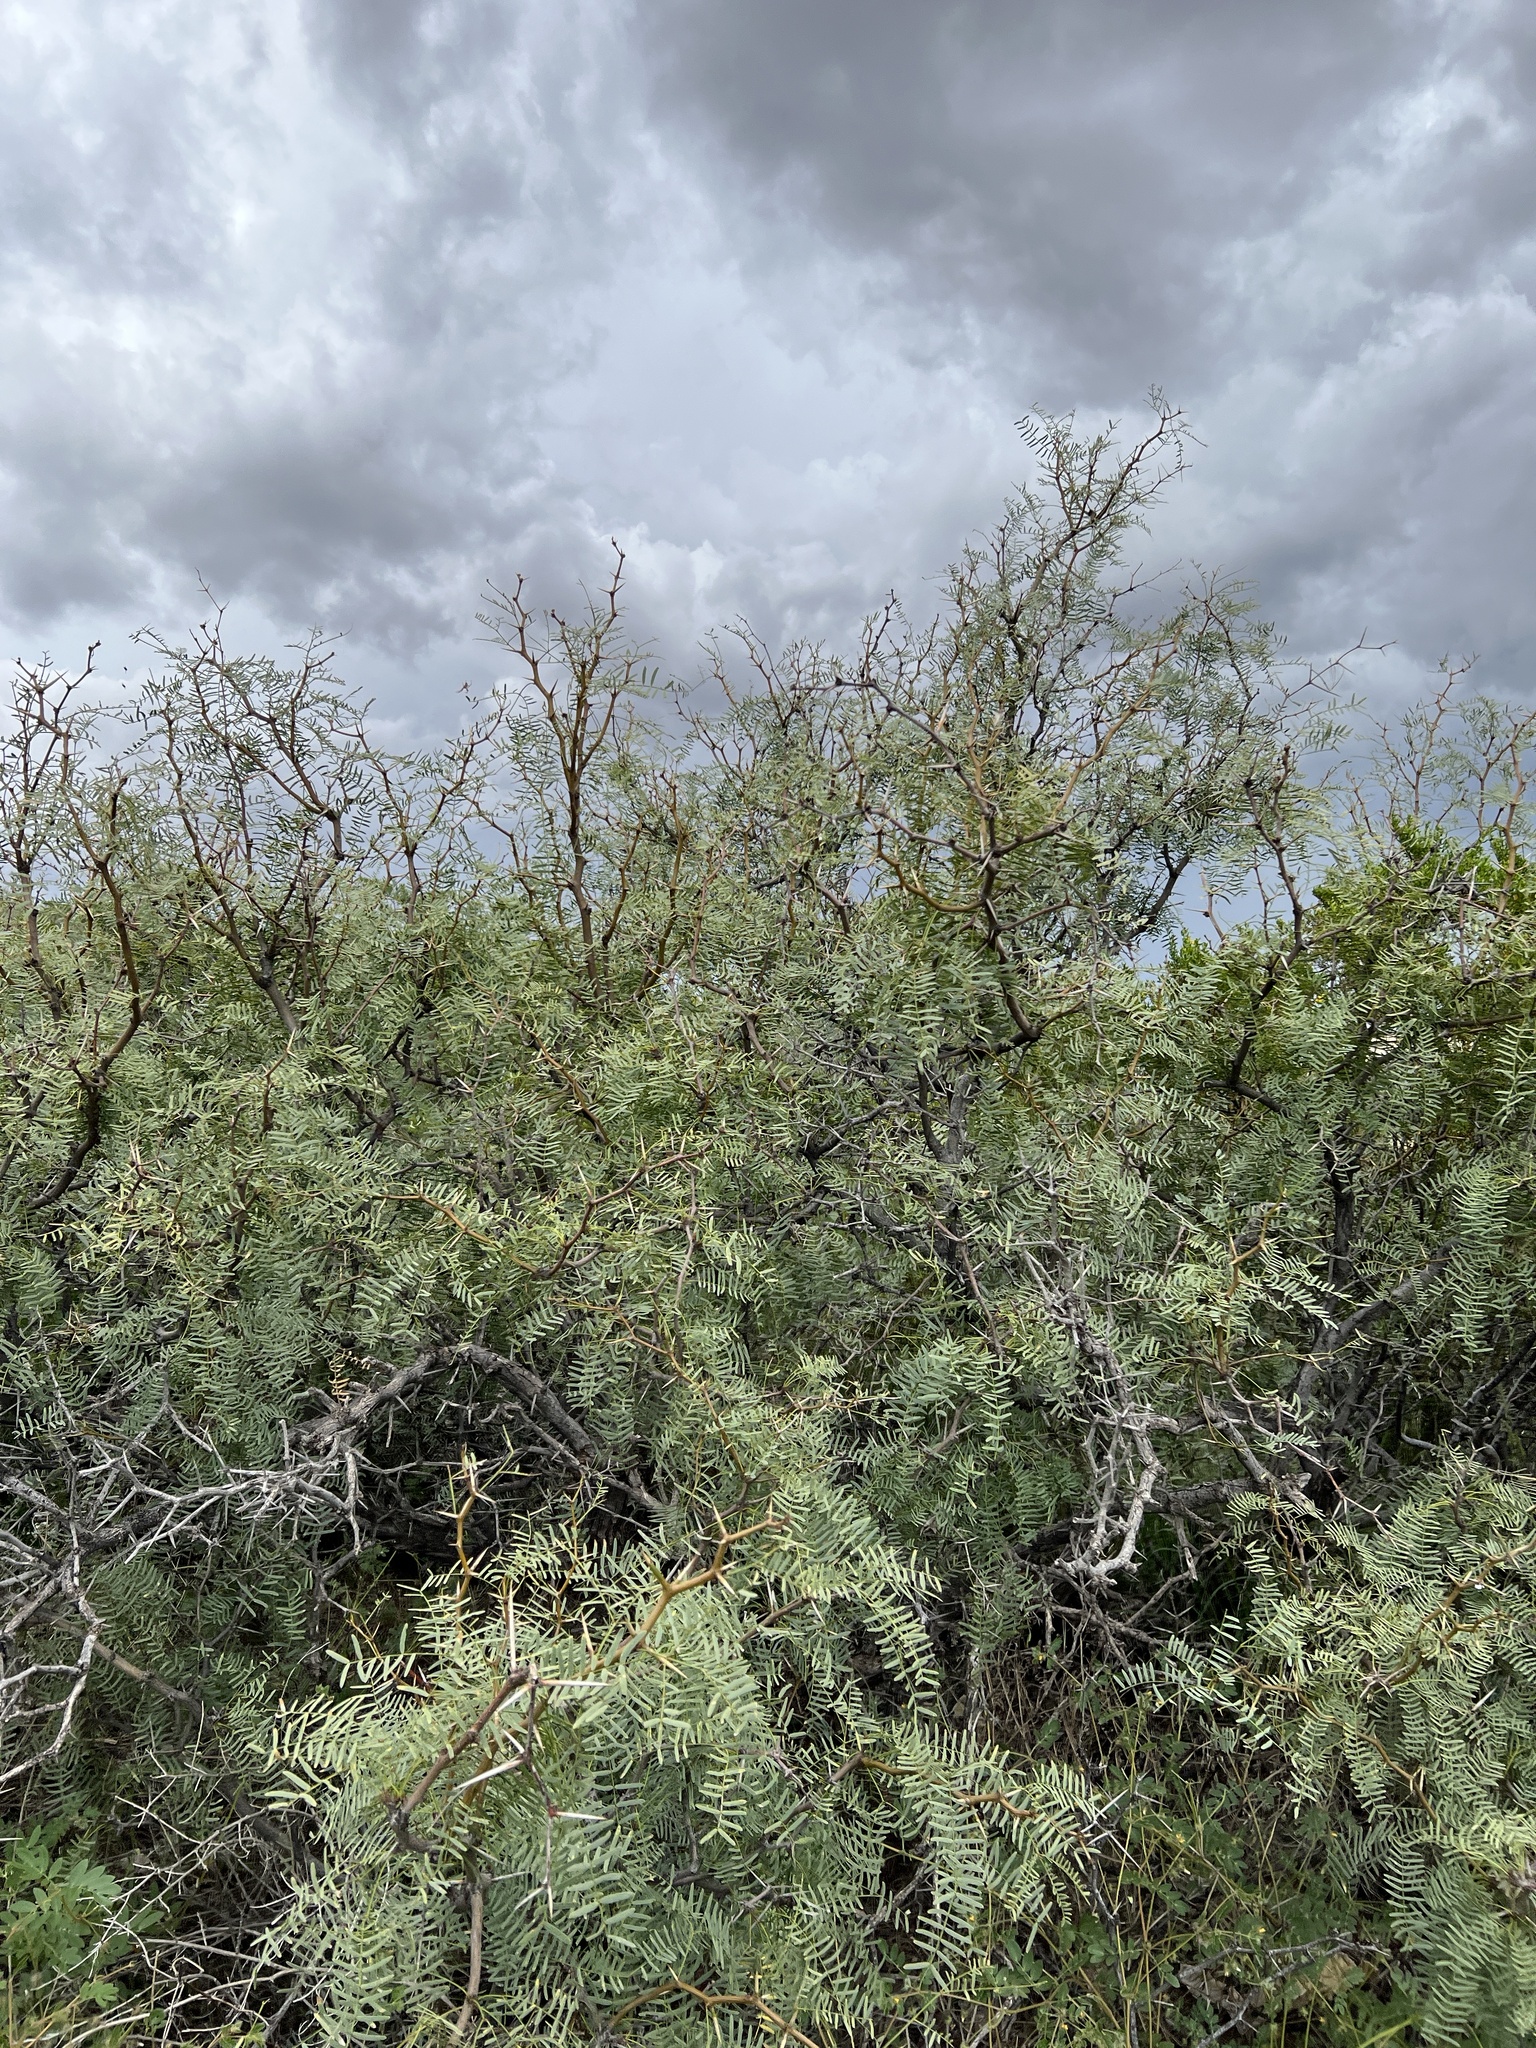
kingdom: Plantae
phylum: Tracheophyta
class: Magnoliopsida
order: Fabales
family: Fabaceae
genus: Prosopis
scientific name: Prosopis pubescens
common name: Screw-bean
